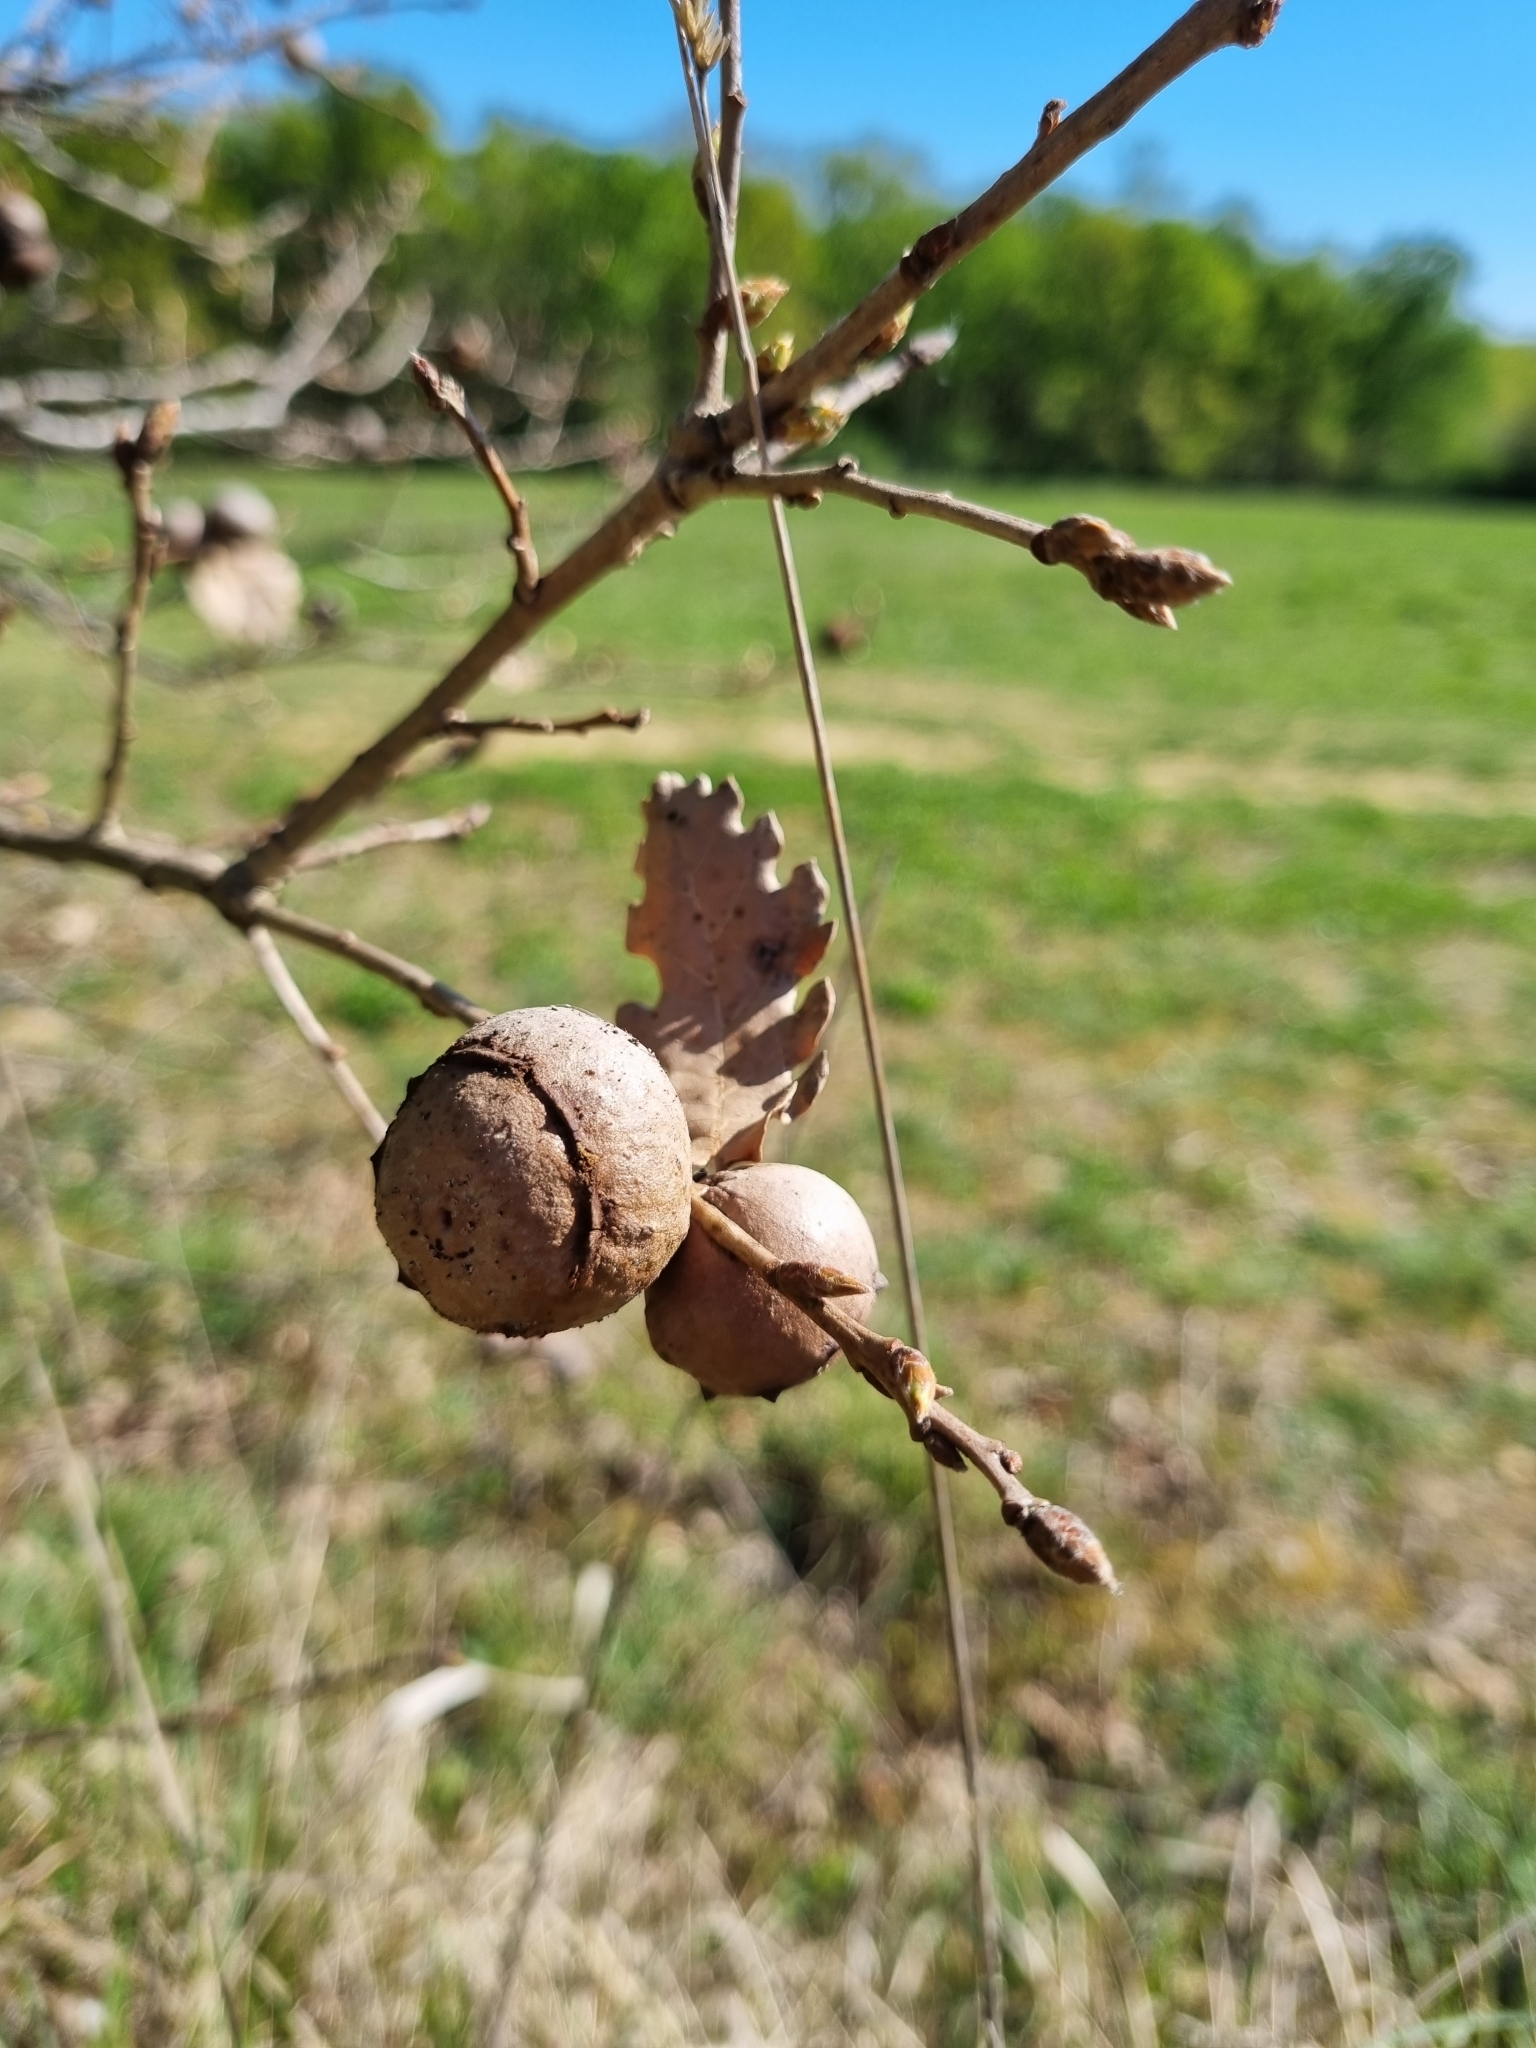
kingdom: Animalia
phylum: Arthropoda
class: Insecta
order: Hymenoptera
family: Cynipidae
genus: Andricus
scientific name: Andricus quercustozae
